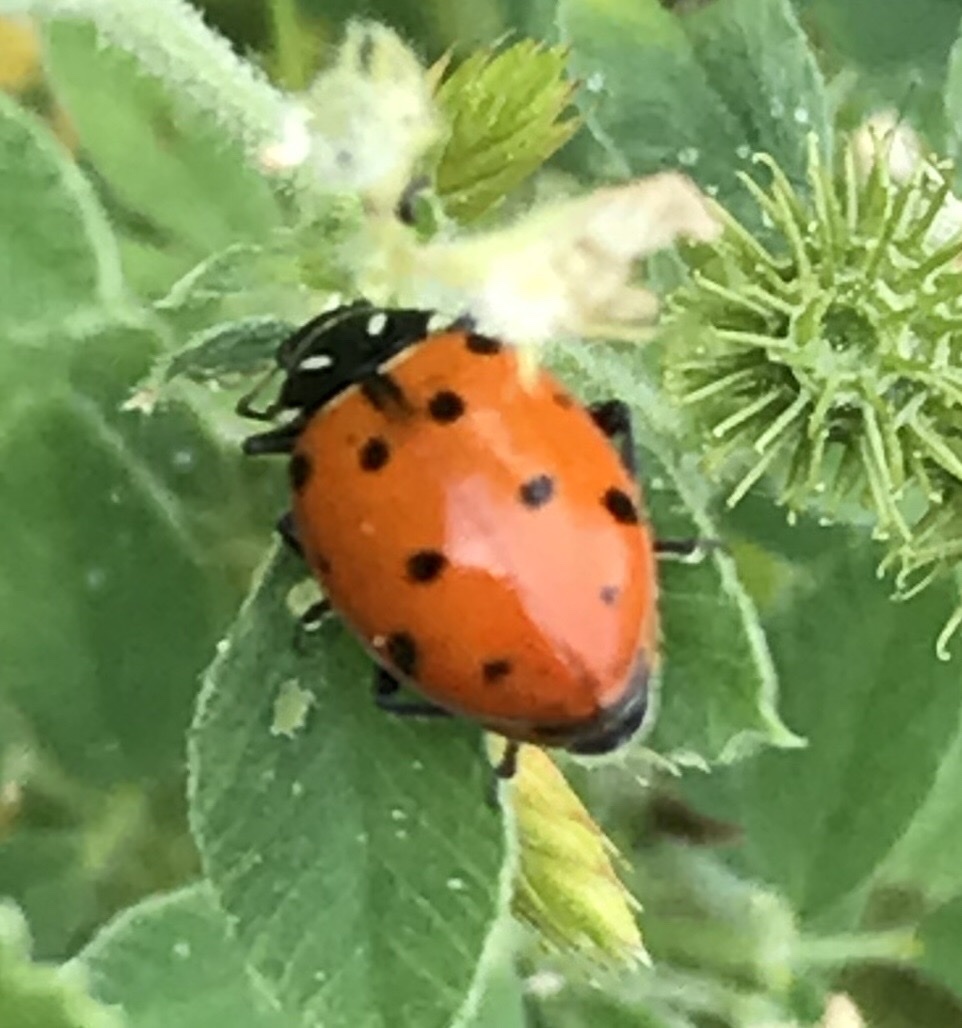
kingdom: Animalia
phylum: Arthropoda
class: Insecta
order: Coleoptera
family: Coccinellidae
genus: Hippodamia
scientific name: Hippodamia convergens
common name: Convergent lady beetle
